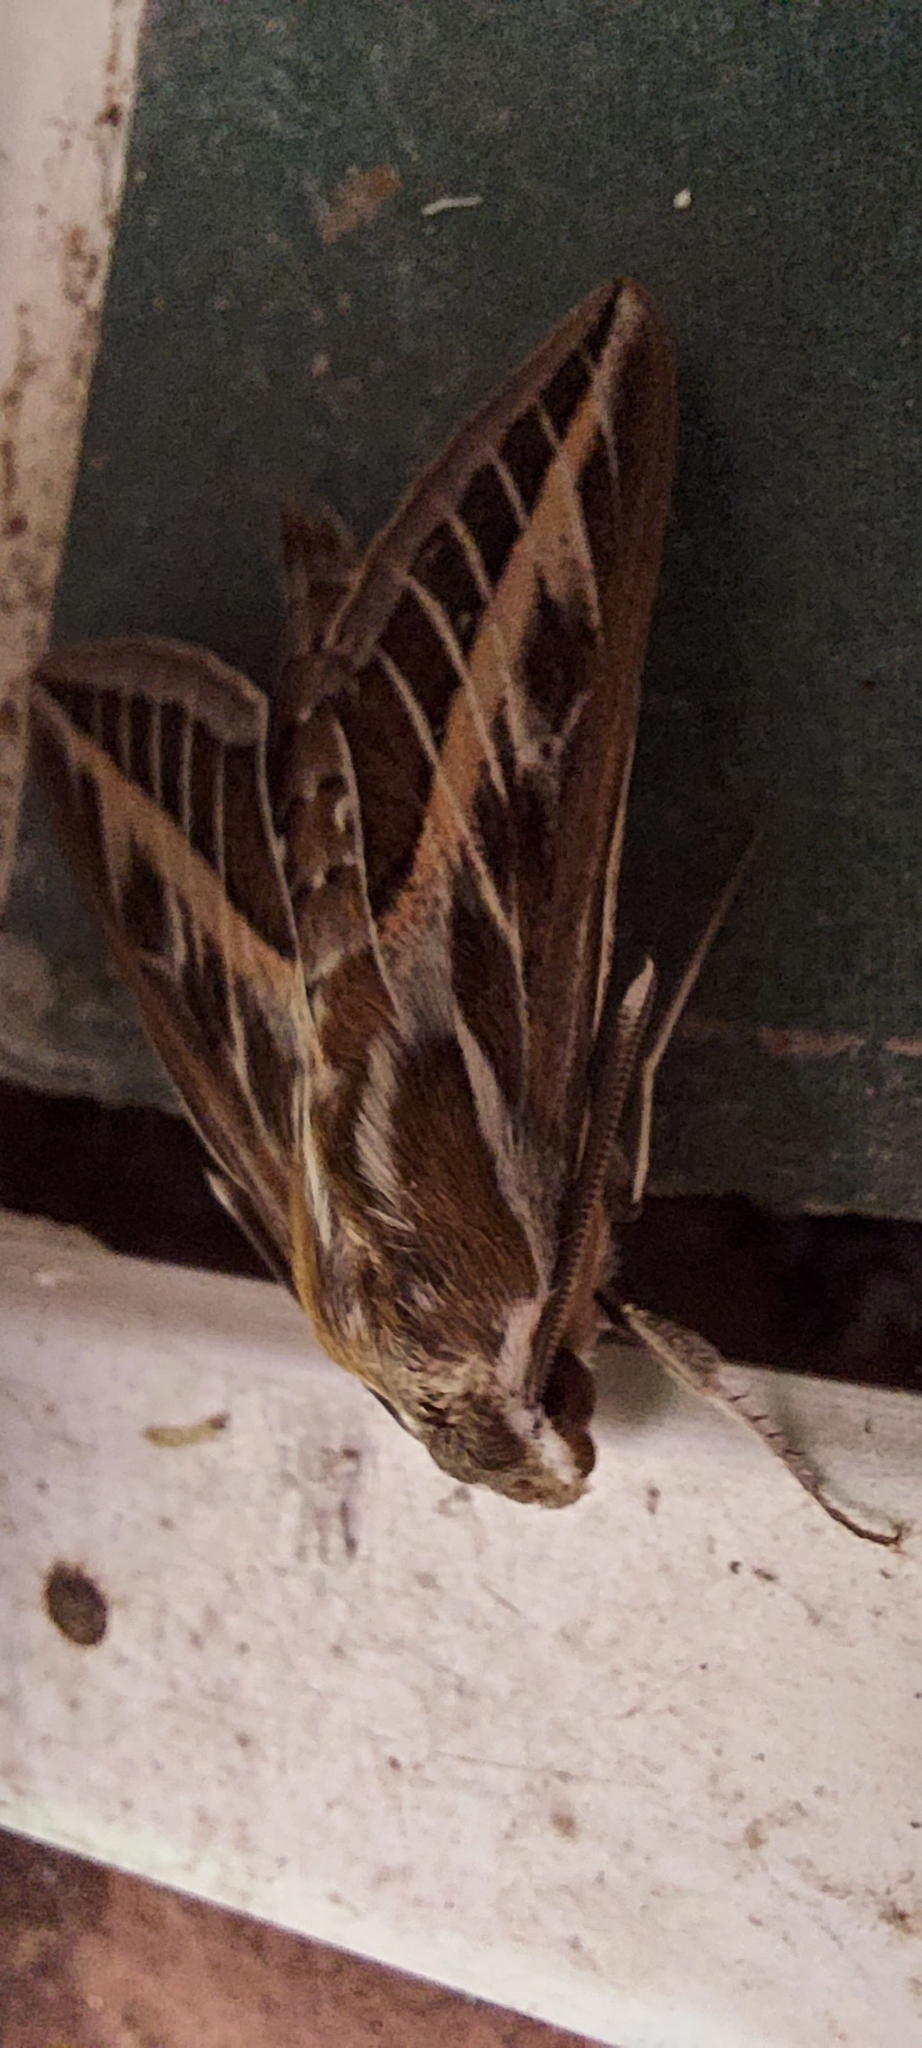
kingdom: Animalia
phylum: Arthropoda
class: Insecta
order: Lepidoptera
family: Sphingidae
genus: Hyles
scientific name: Hyles livornica
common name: Striped hawk-moth
